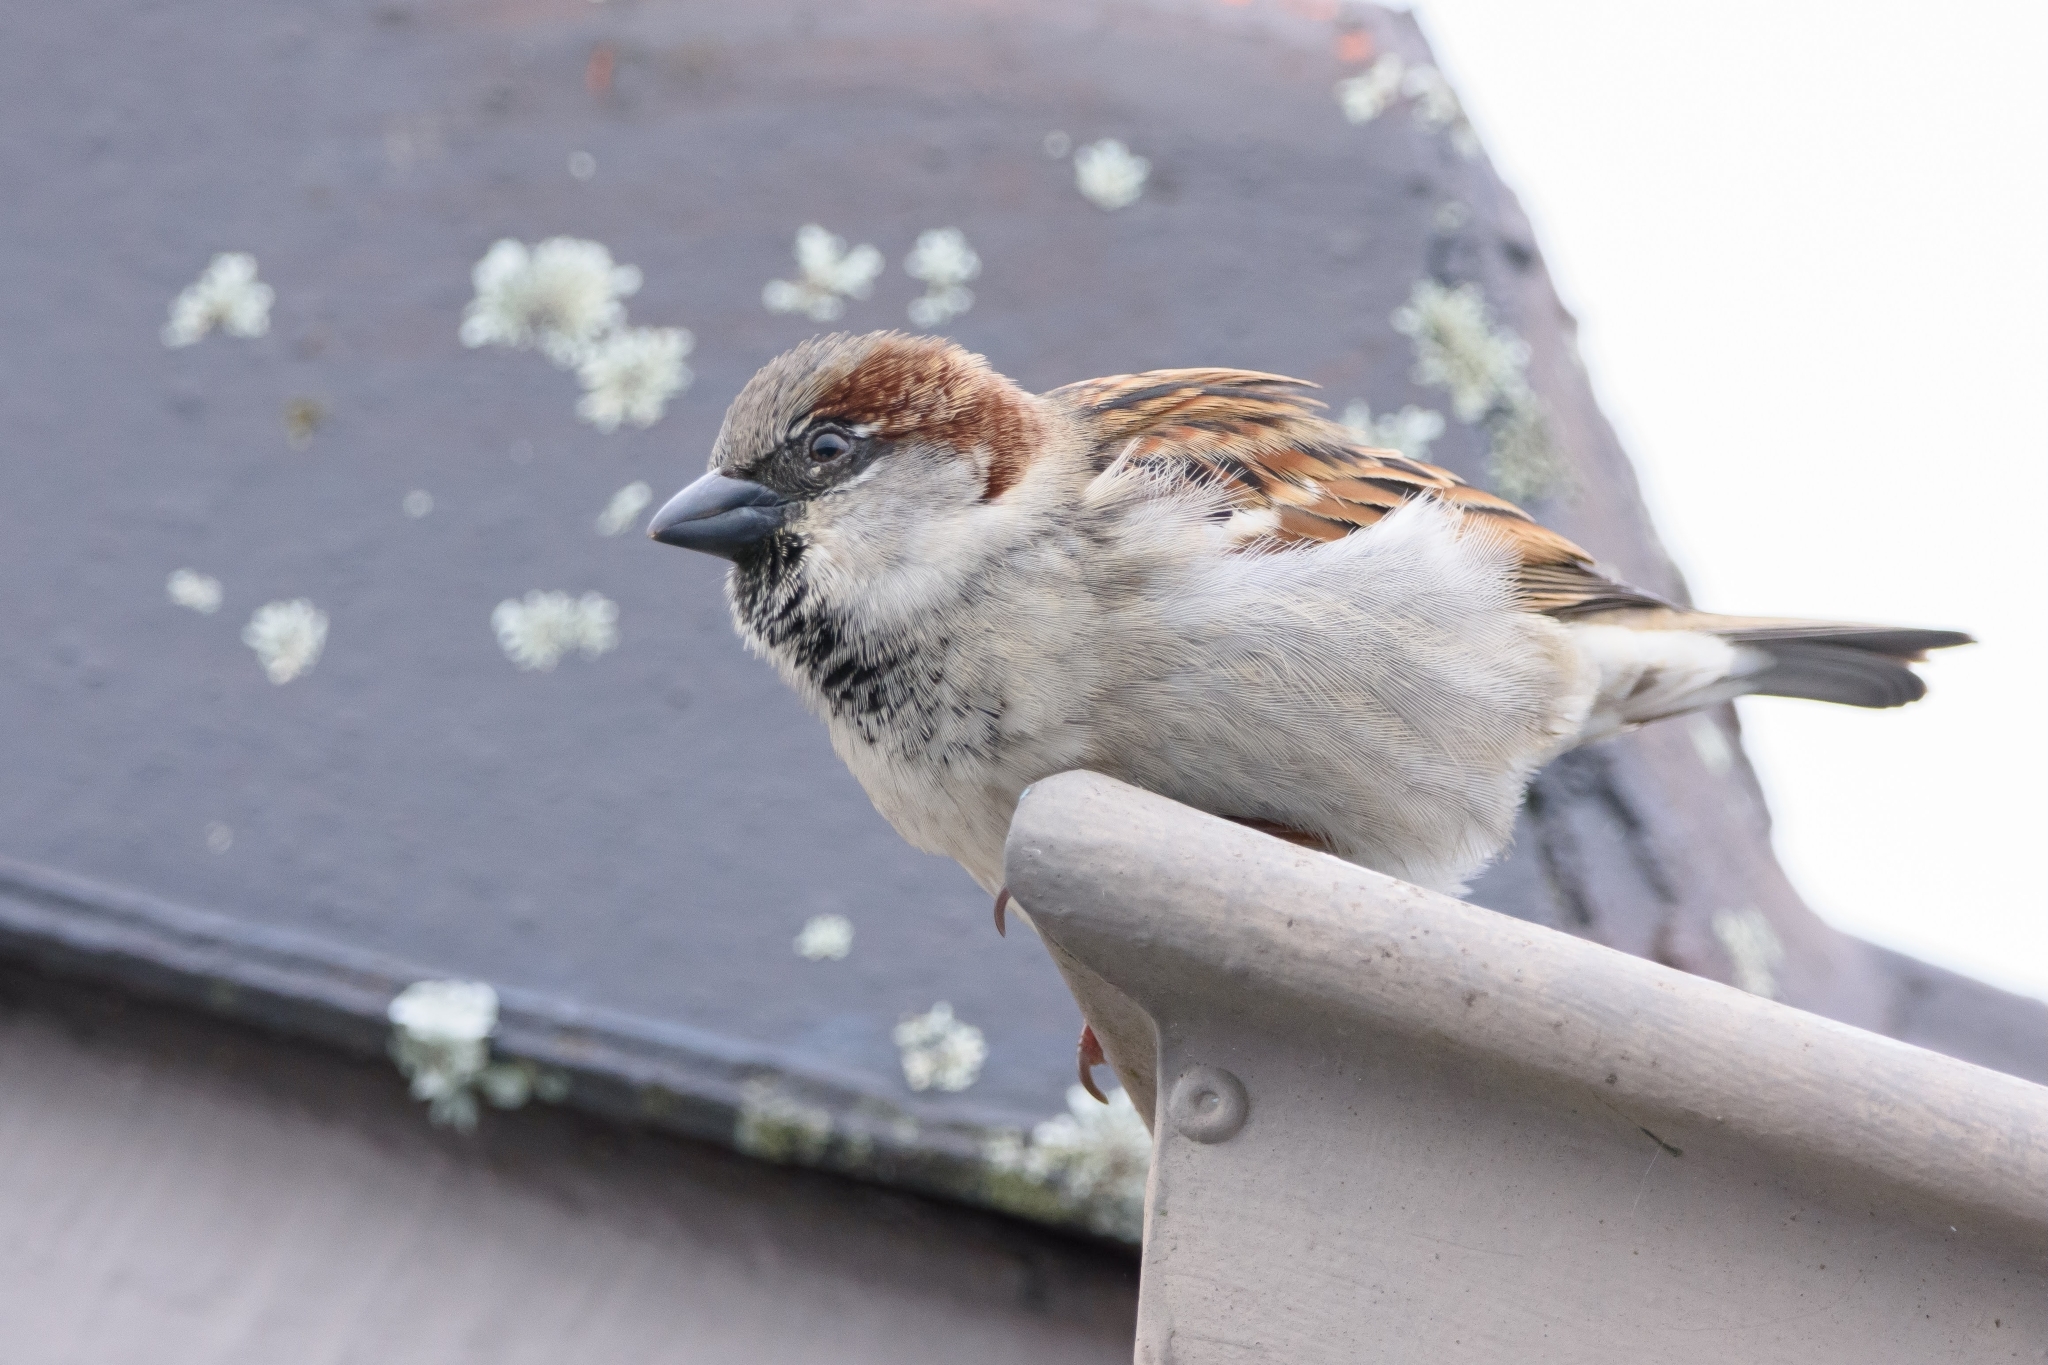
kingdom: Animalia
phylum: Chordata
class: Aves
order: Passeriformes
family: Passeridae
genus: Passer
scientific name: Passer domesticus
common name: House sparrow
